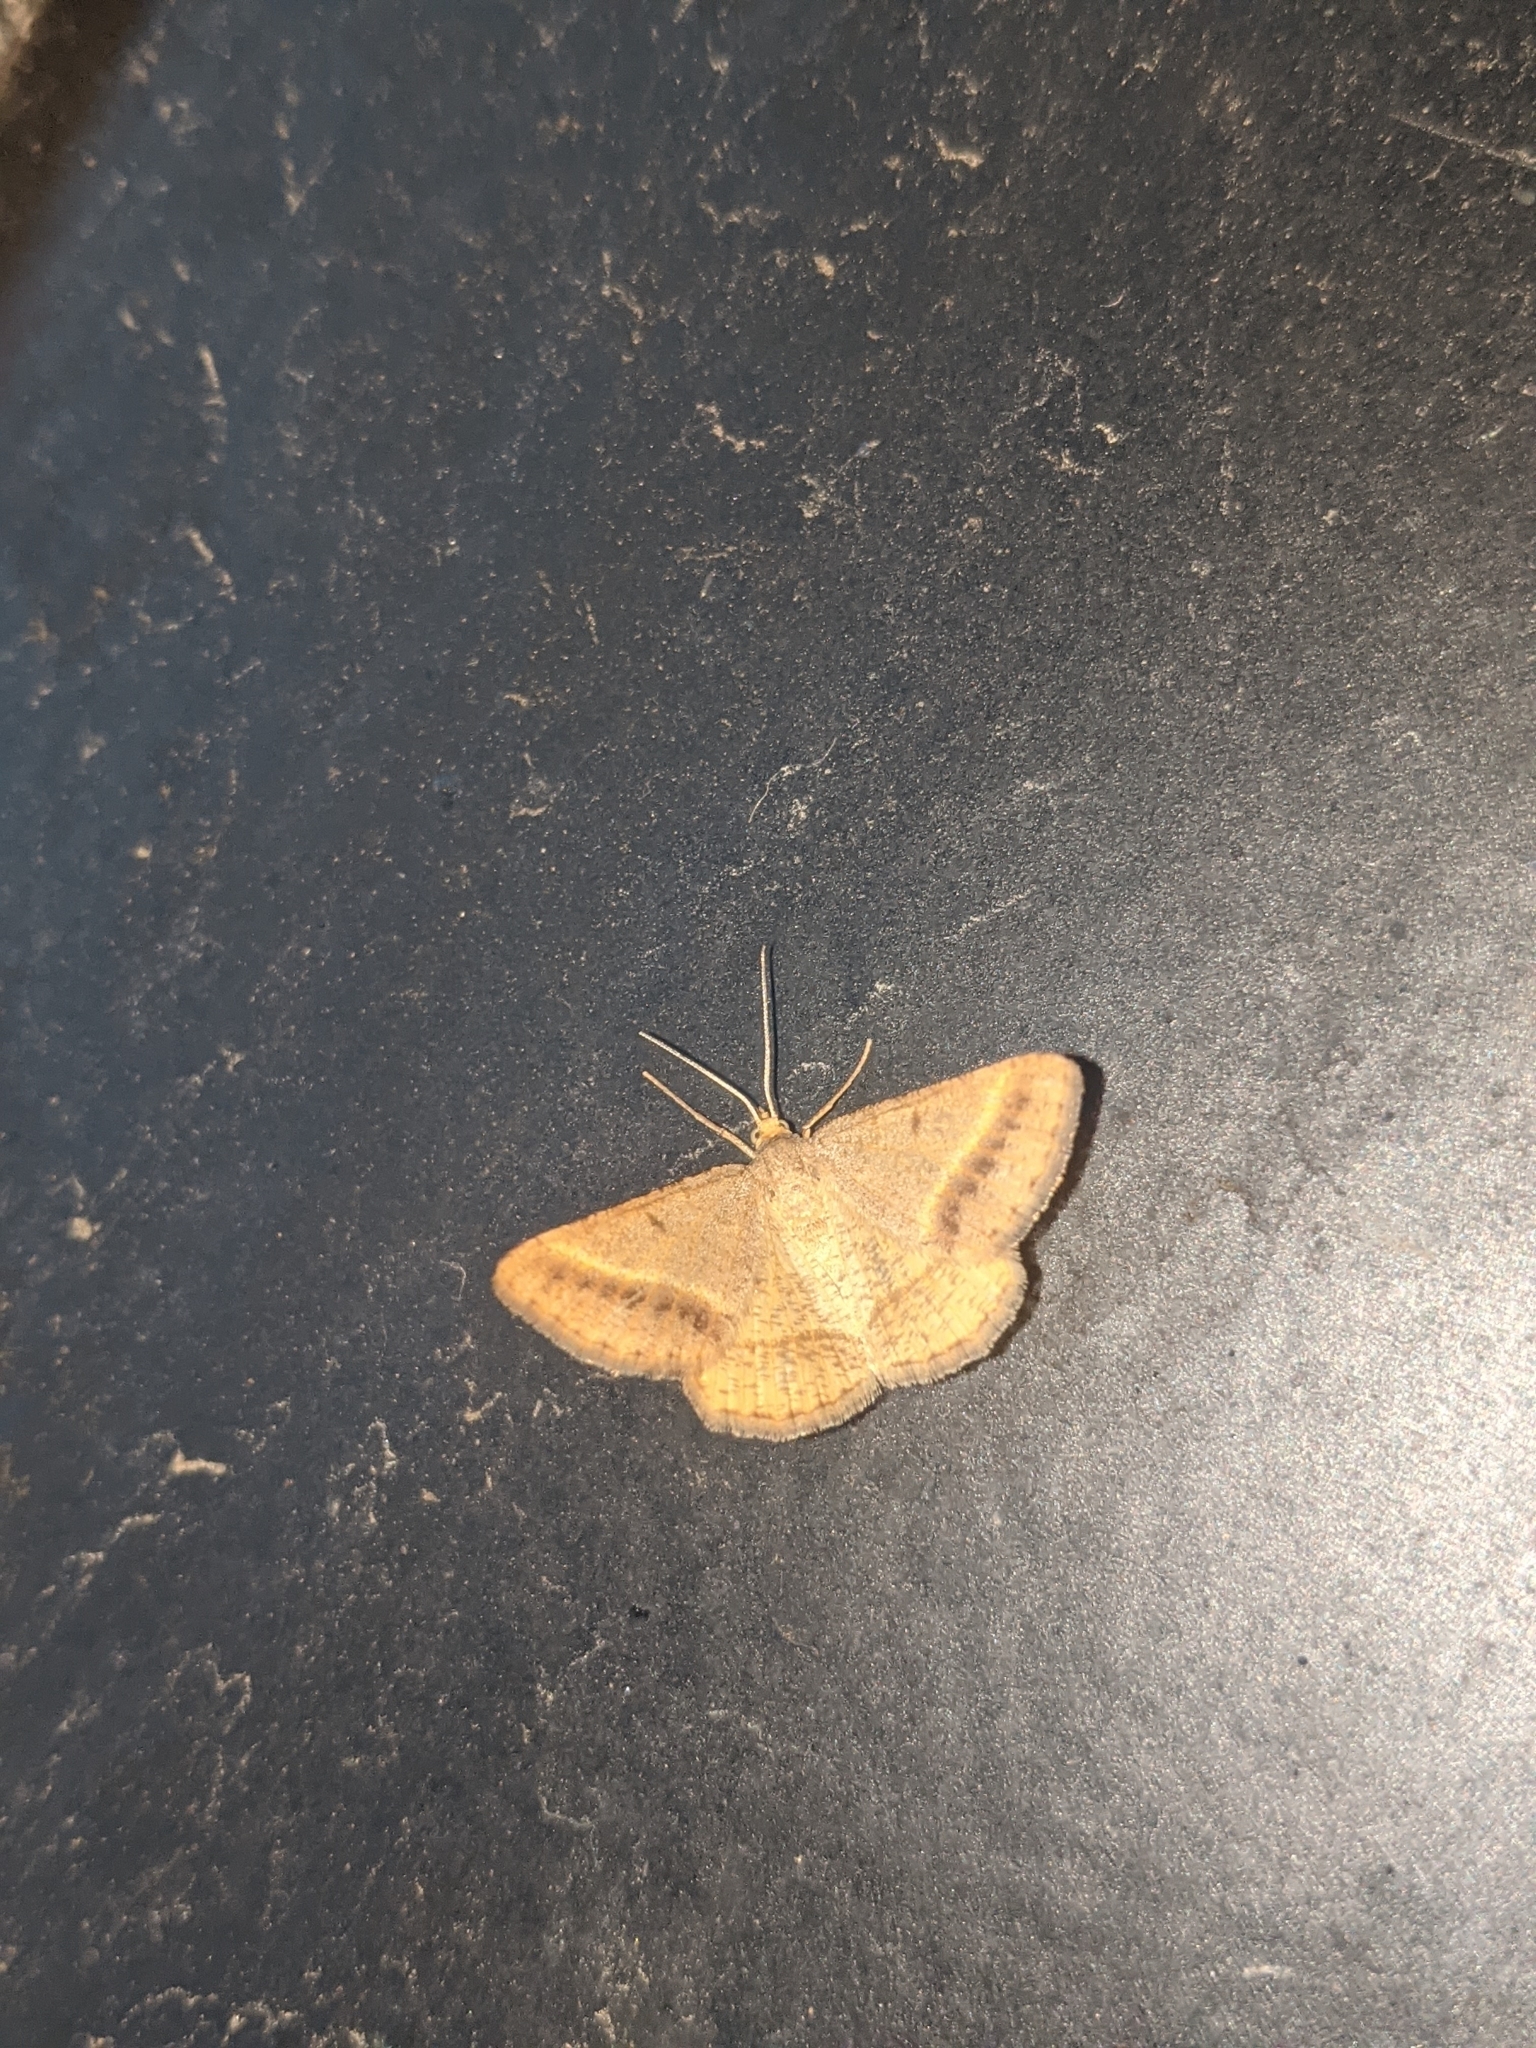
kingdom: Animalia
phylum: Arthropoda
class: Insecta
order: Lepidoptera
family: Geometridae
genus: Tephrina
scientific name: Tephrina arenacearia
